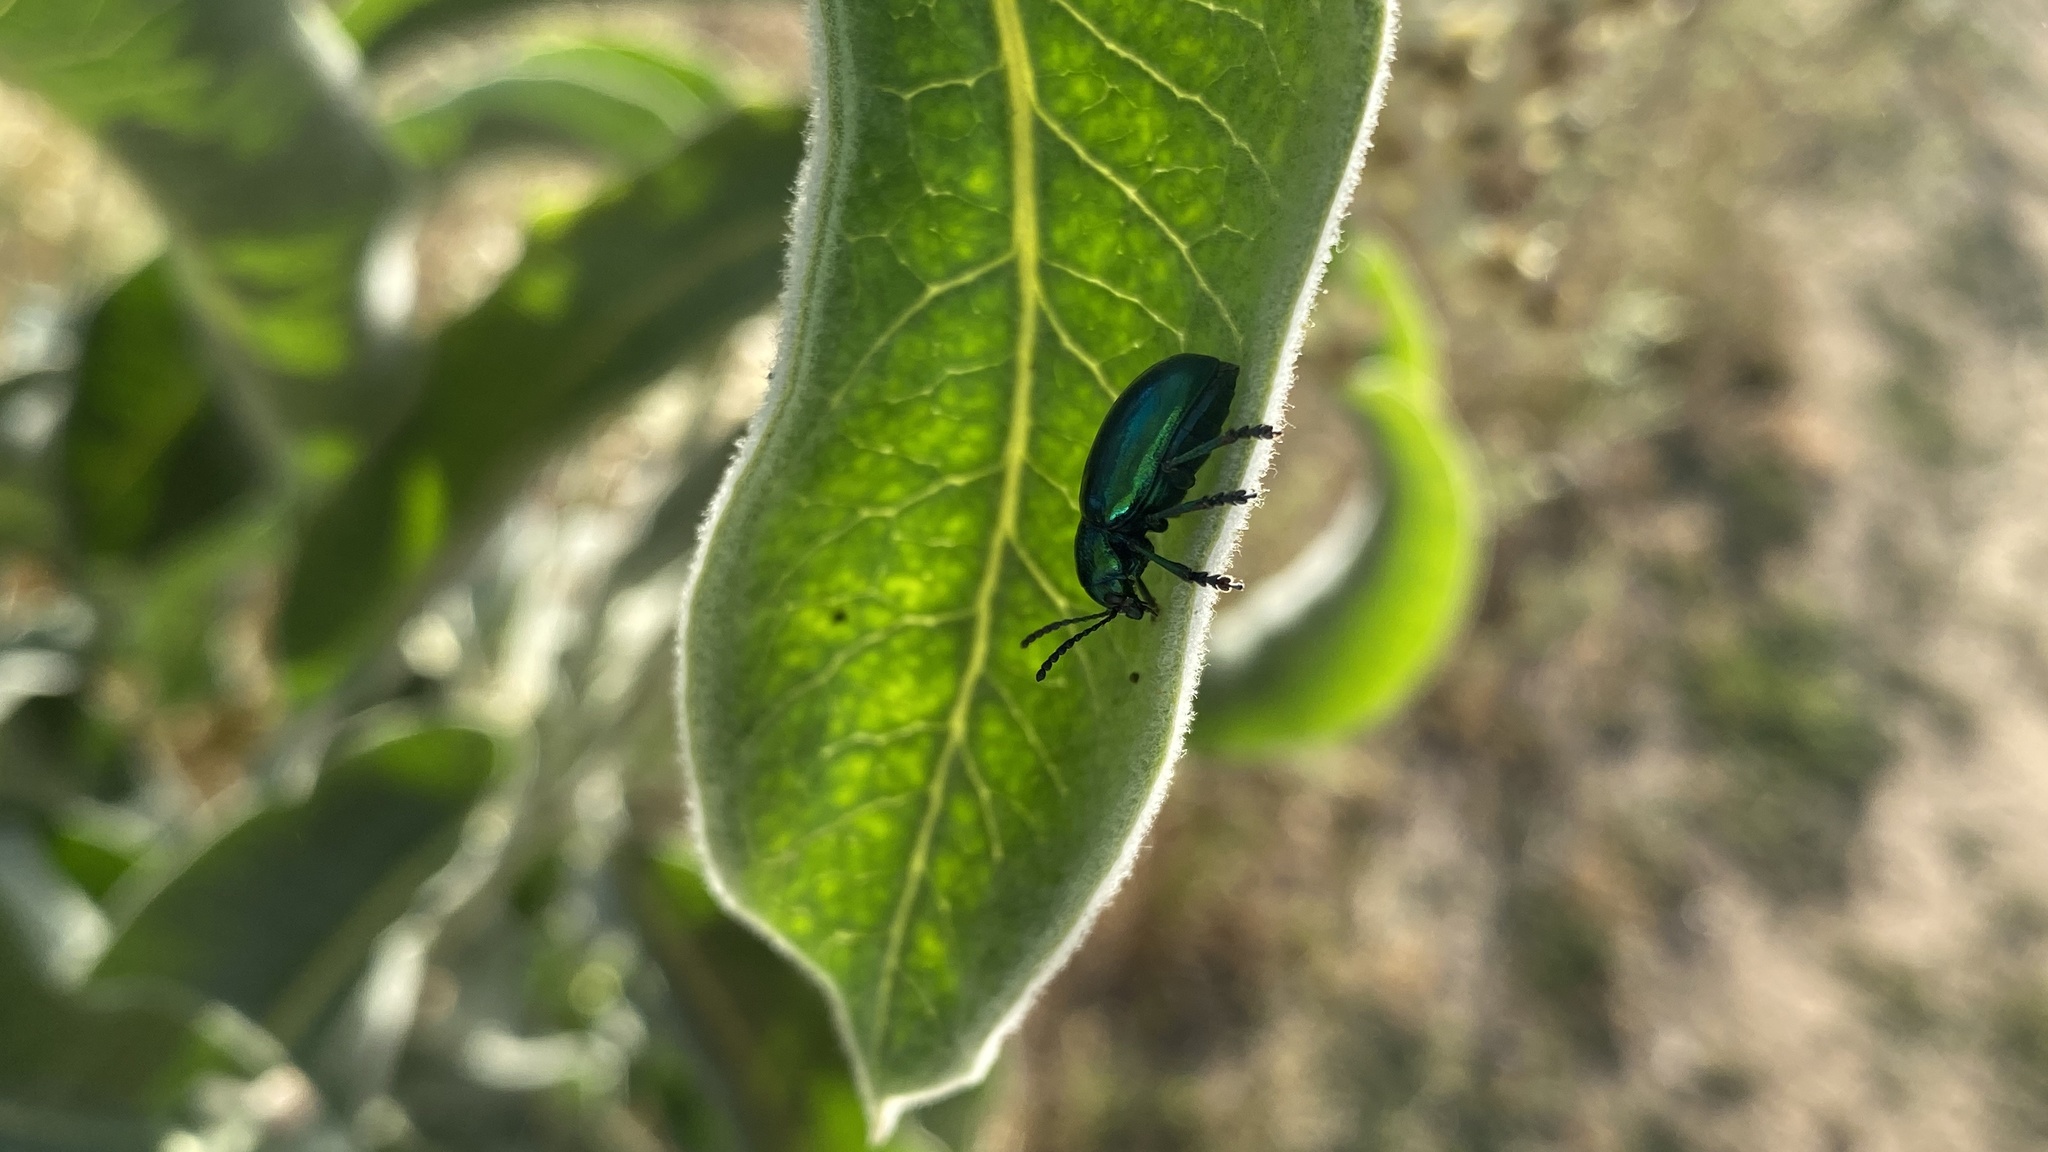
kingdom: Animalia
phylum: Arthropoda
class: Insecta
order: Coleoptera
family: Chrysomelidae
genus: Chrysochus
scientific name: Chrysochus cobaltinus
